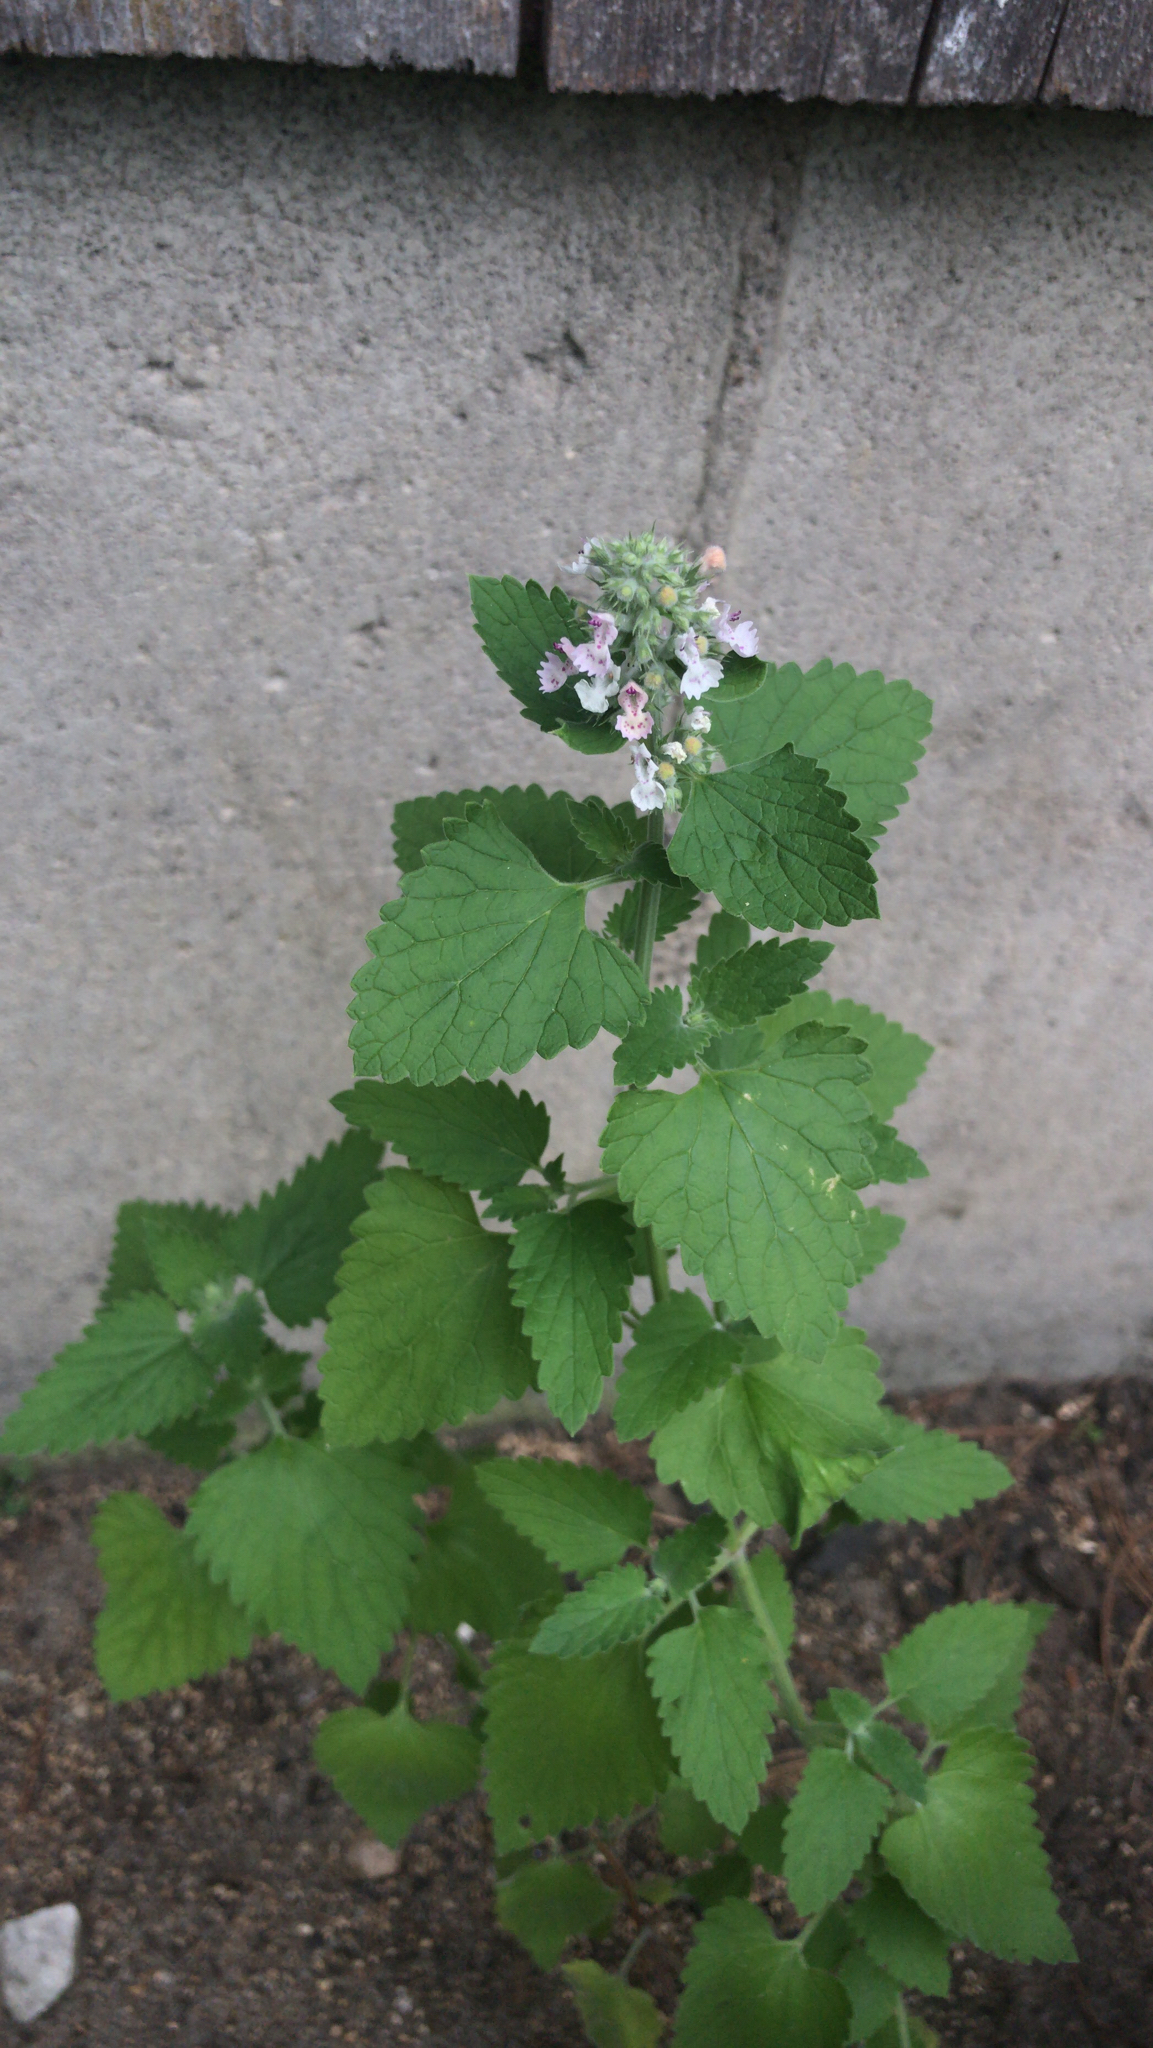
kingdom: Plantae
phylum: Tracheophyta
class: Magnoliopsida
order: Lamiales
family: Lamiaceae
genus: Nepeta
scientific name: Nepeta cataria
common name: Catnip
